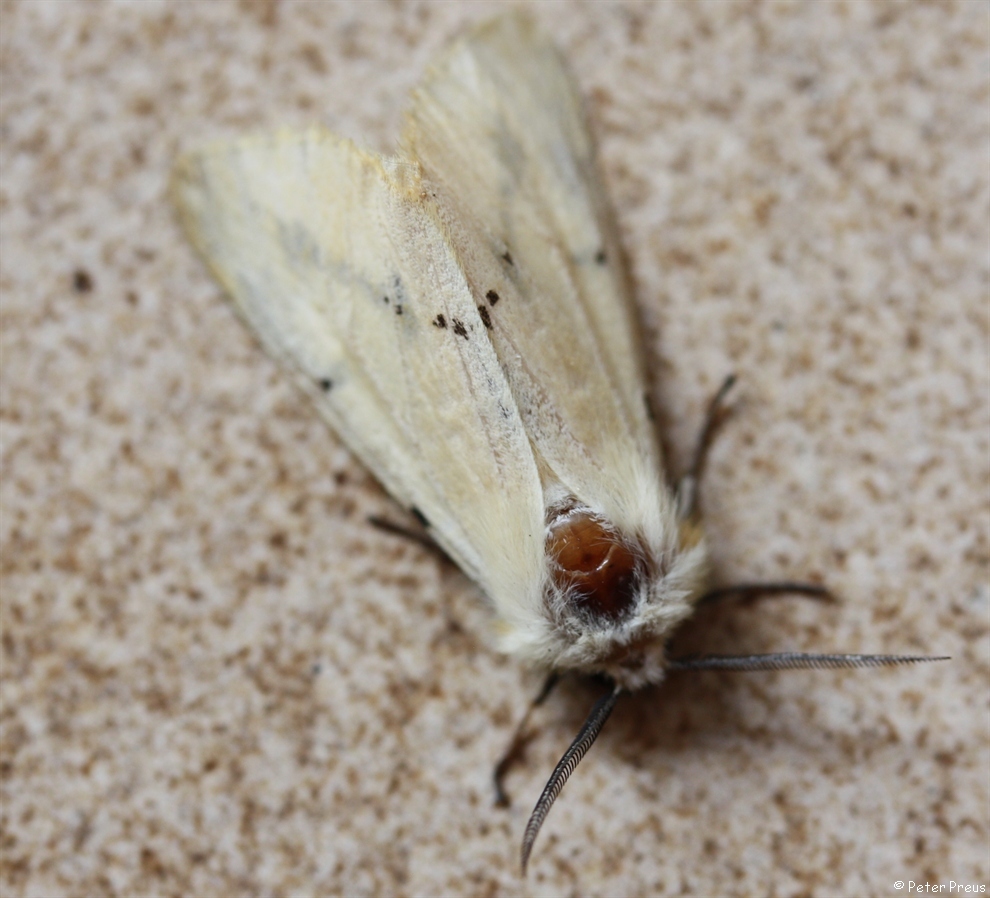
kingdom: Animalia
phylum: Arthropoda
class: Insecta
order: Lepidoptera
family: Erebidae
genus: Spilarctia
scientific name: Spilarctia lutea
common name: Buff ermine
